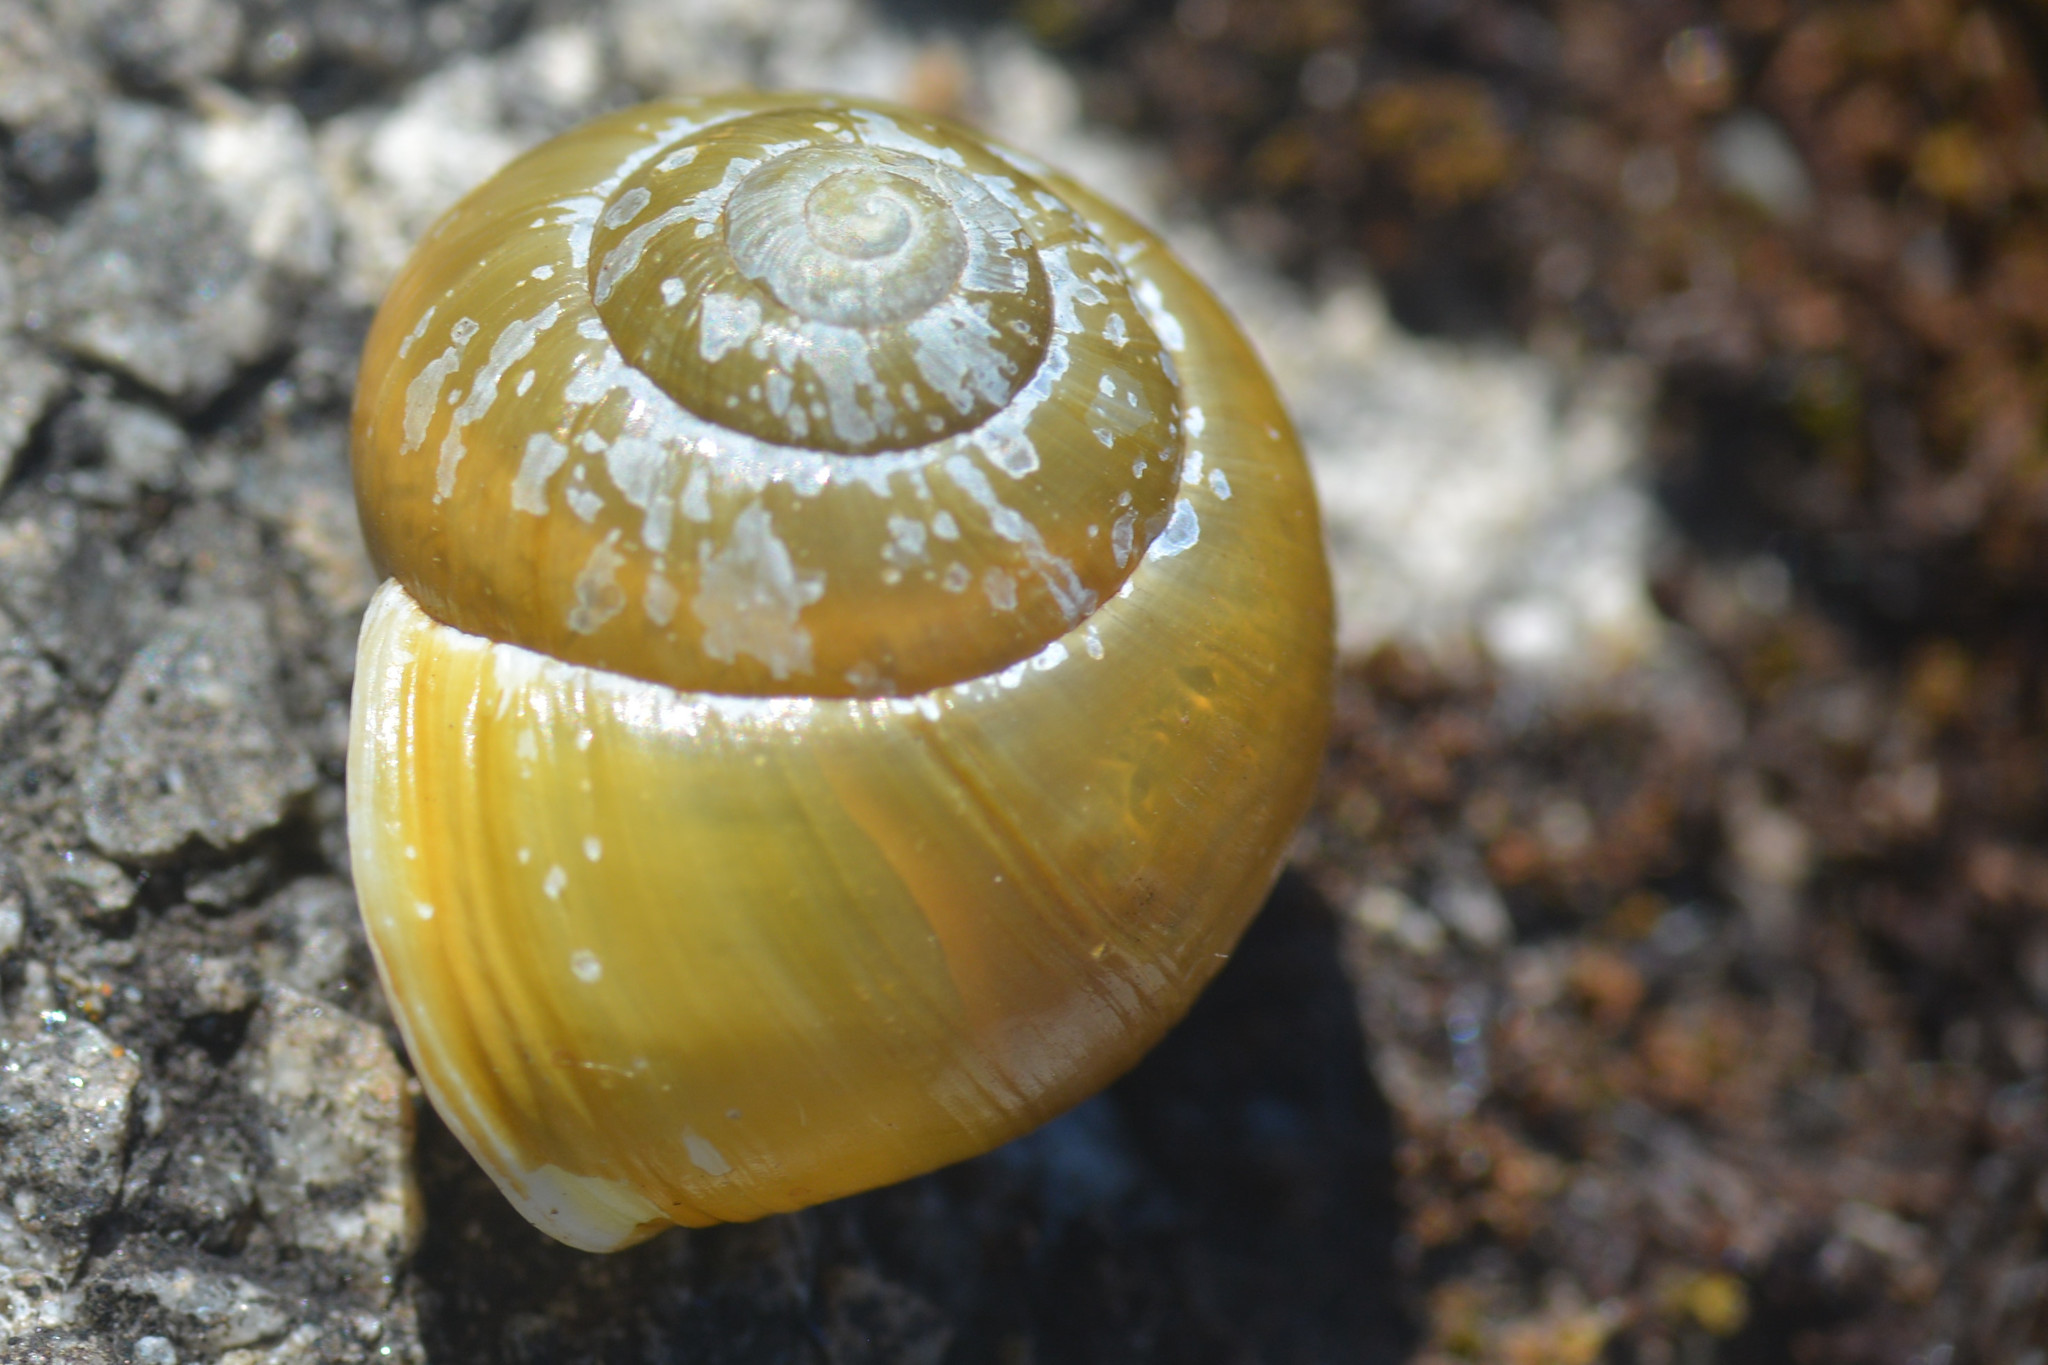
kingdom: Animalia
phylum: Mollusca
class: Gastropoda
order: Stylommatophora
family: Helicidae
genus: Cepaea
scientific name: Cepaea hortensis
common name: White-lip gardensnail
